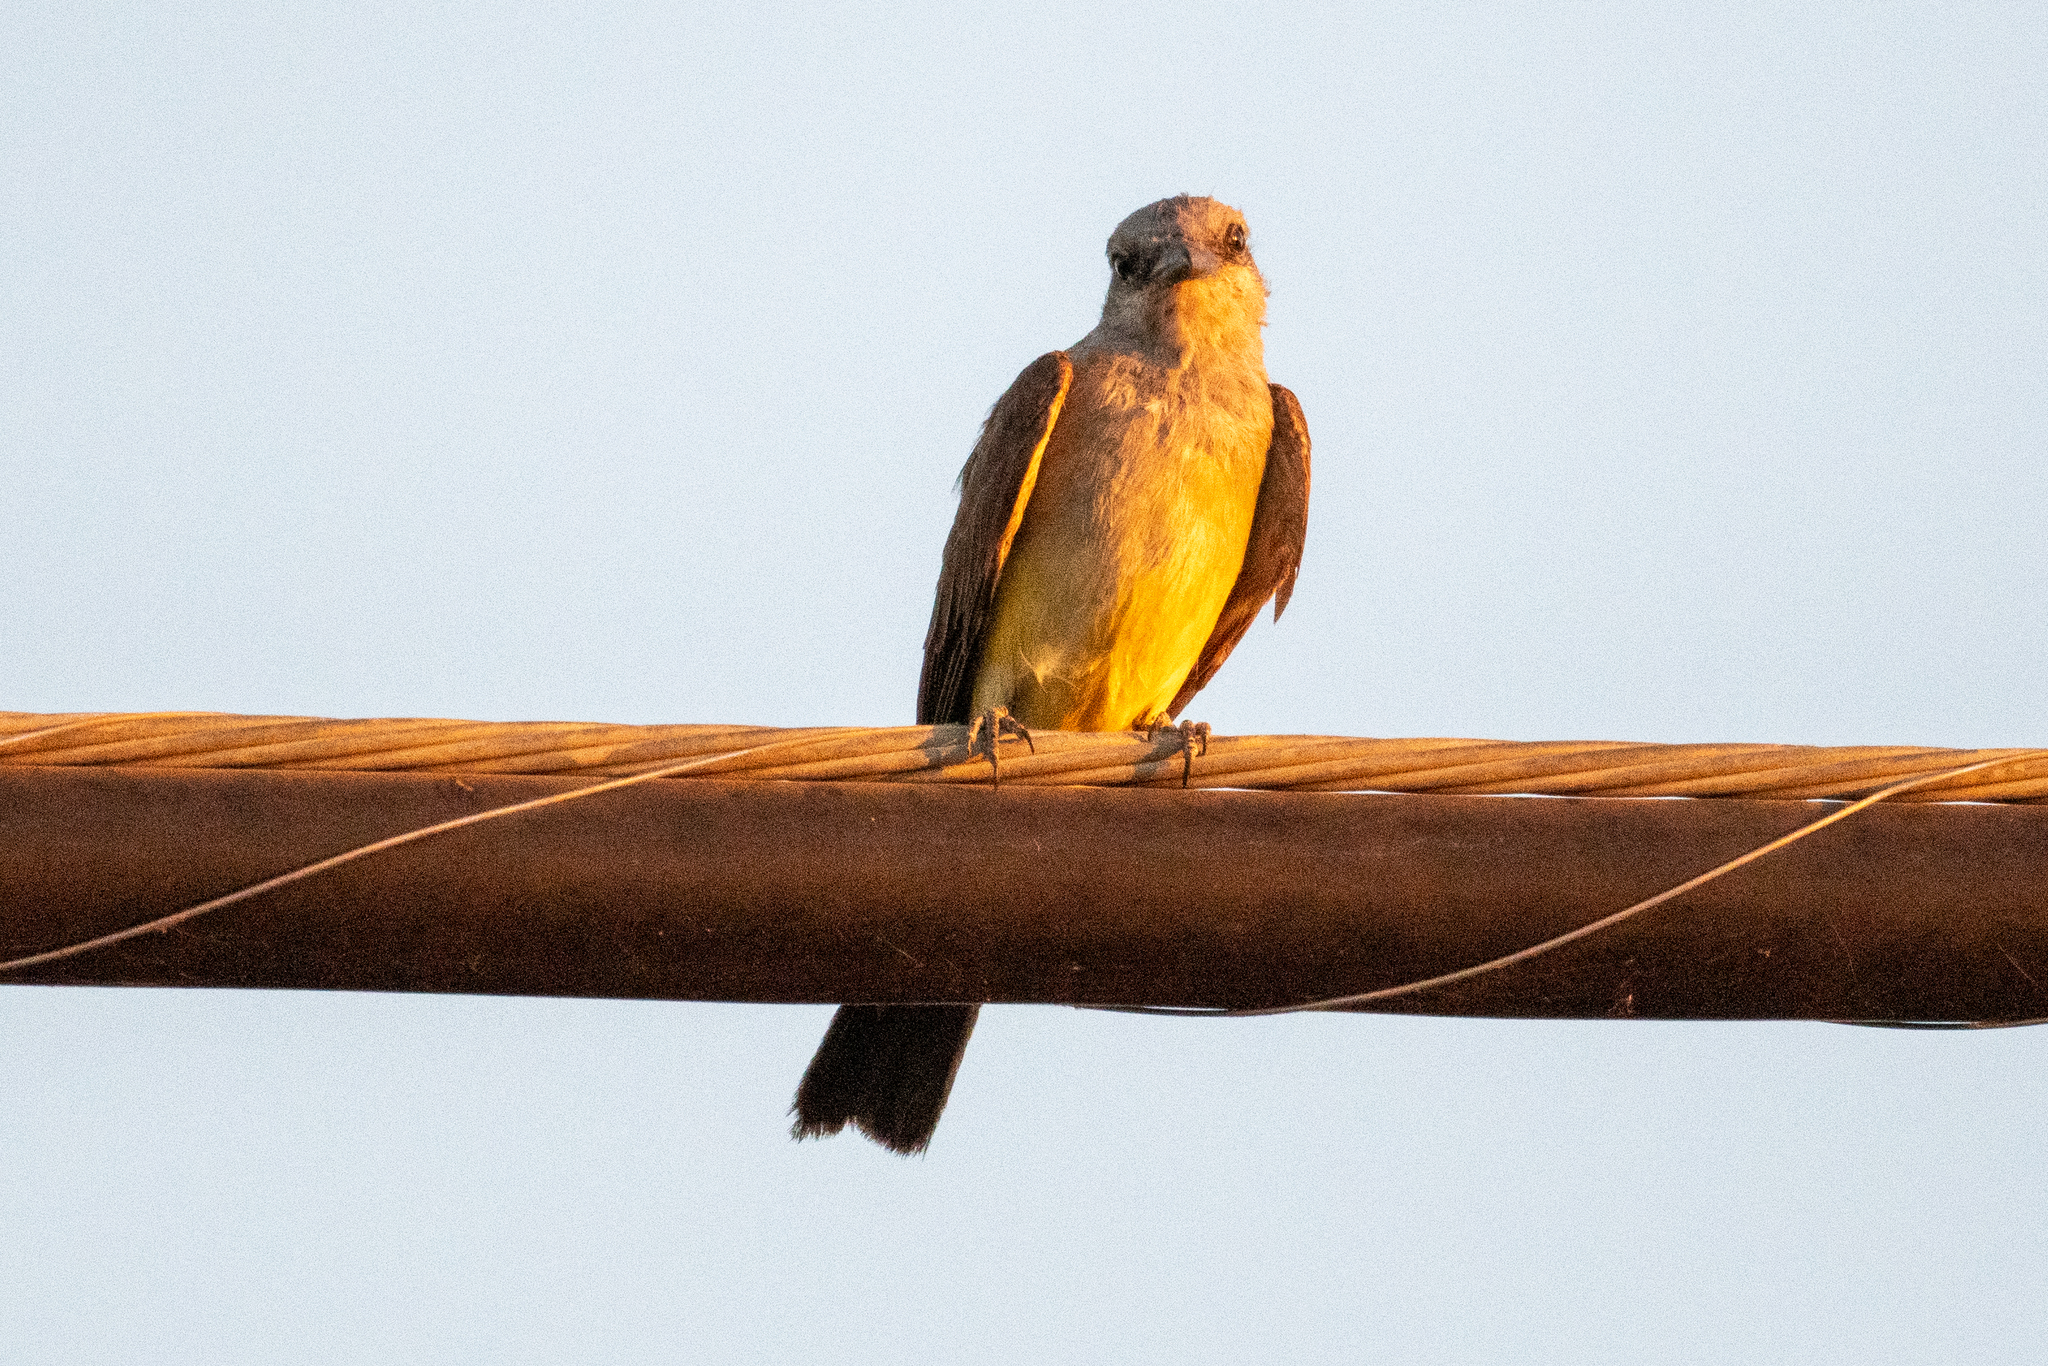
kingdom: Animalia
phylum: Chordata
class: Aves
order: Passeriformes
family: Tyrannidae
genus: Tyrannus
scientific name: Tyrannus verticalis
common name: Western kingbird
